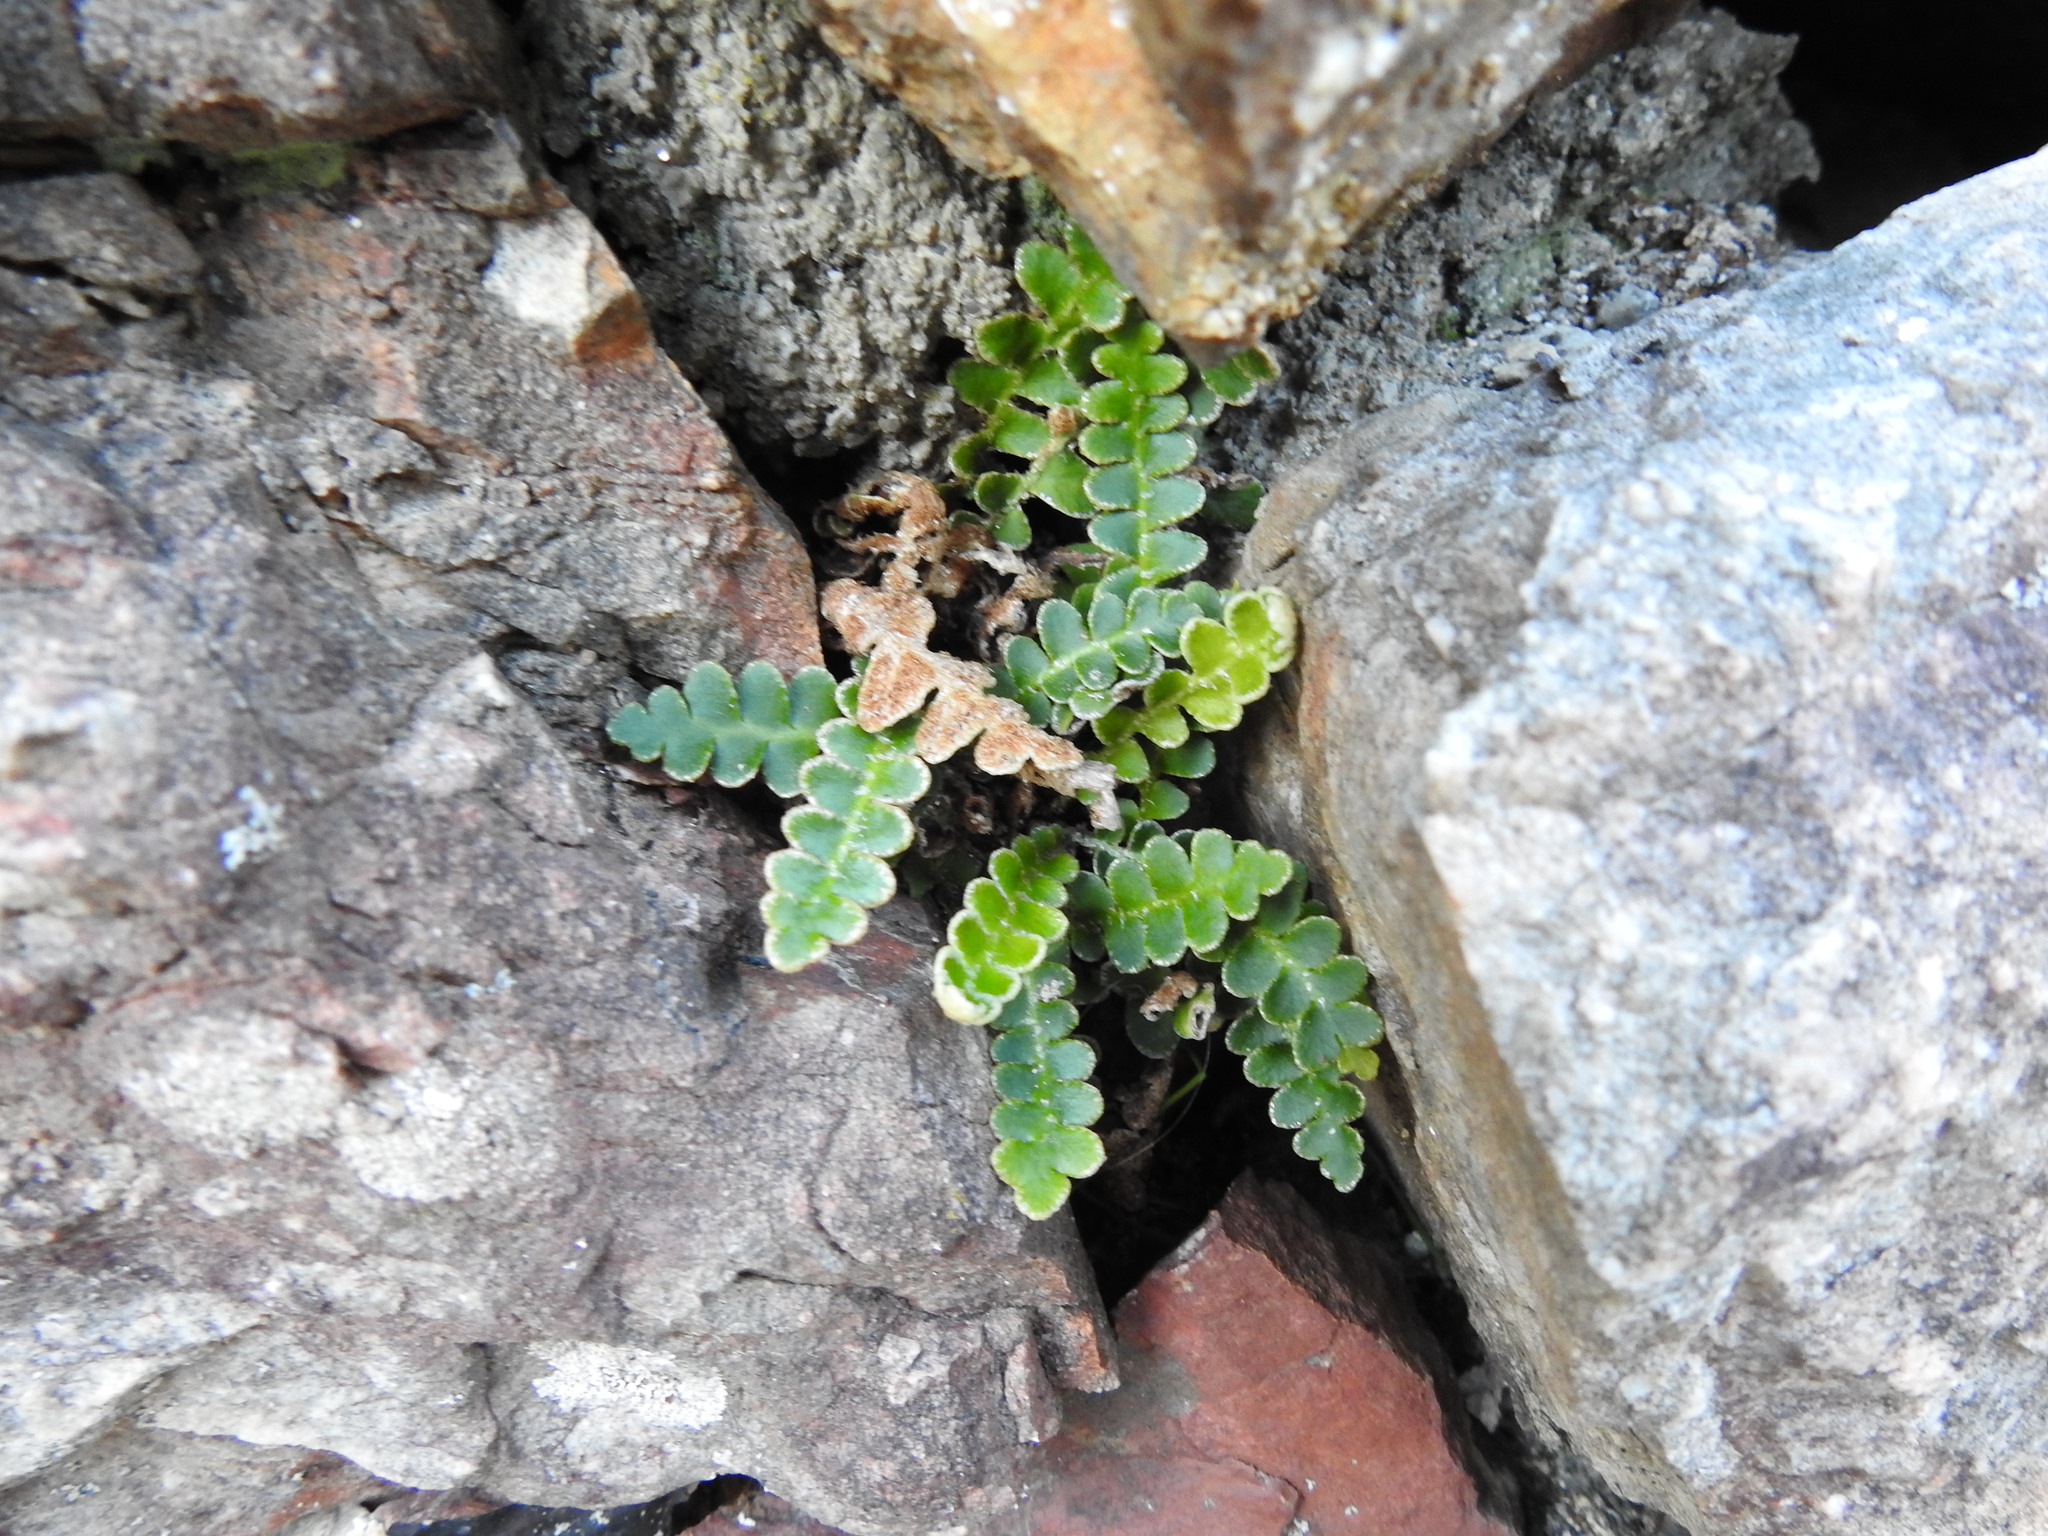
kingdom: Plantae
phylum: Tracheophyta
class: Polypodiopsida
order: Polypodiales
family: Aspleniaceae
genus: Asplenium
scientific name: Asplenium ceterach
